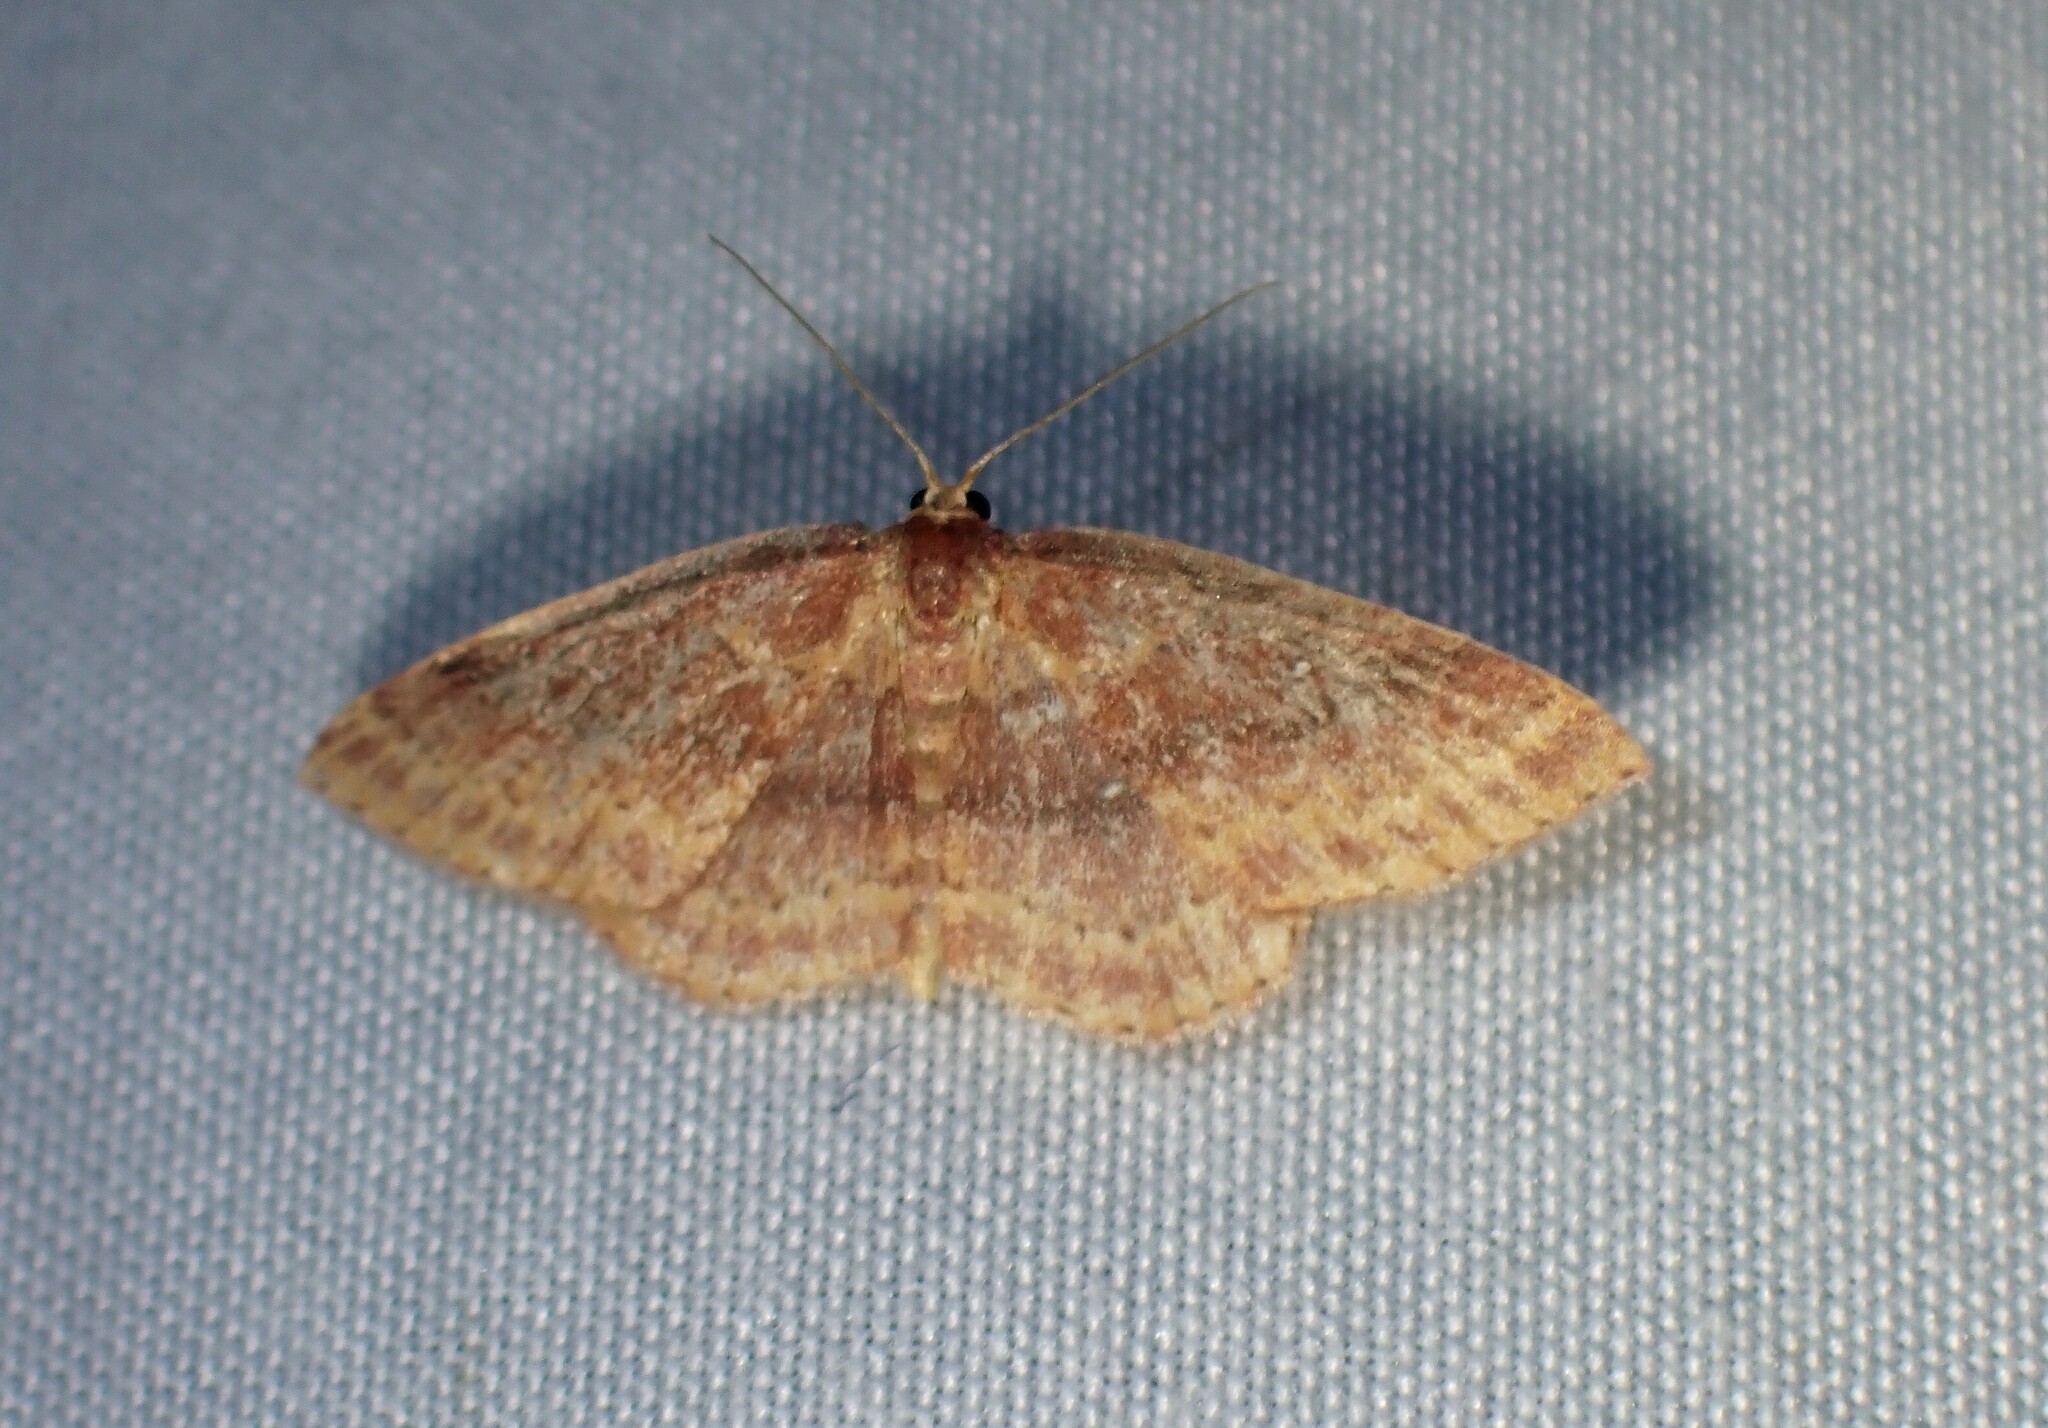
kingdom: Animalia
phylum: Arthropoda
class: Insecta
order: Lepidoptera
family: Geometridae
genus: Cyclophora
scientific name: Cyclophora azorensis
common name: Geometer moth
